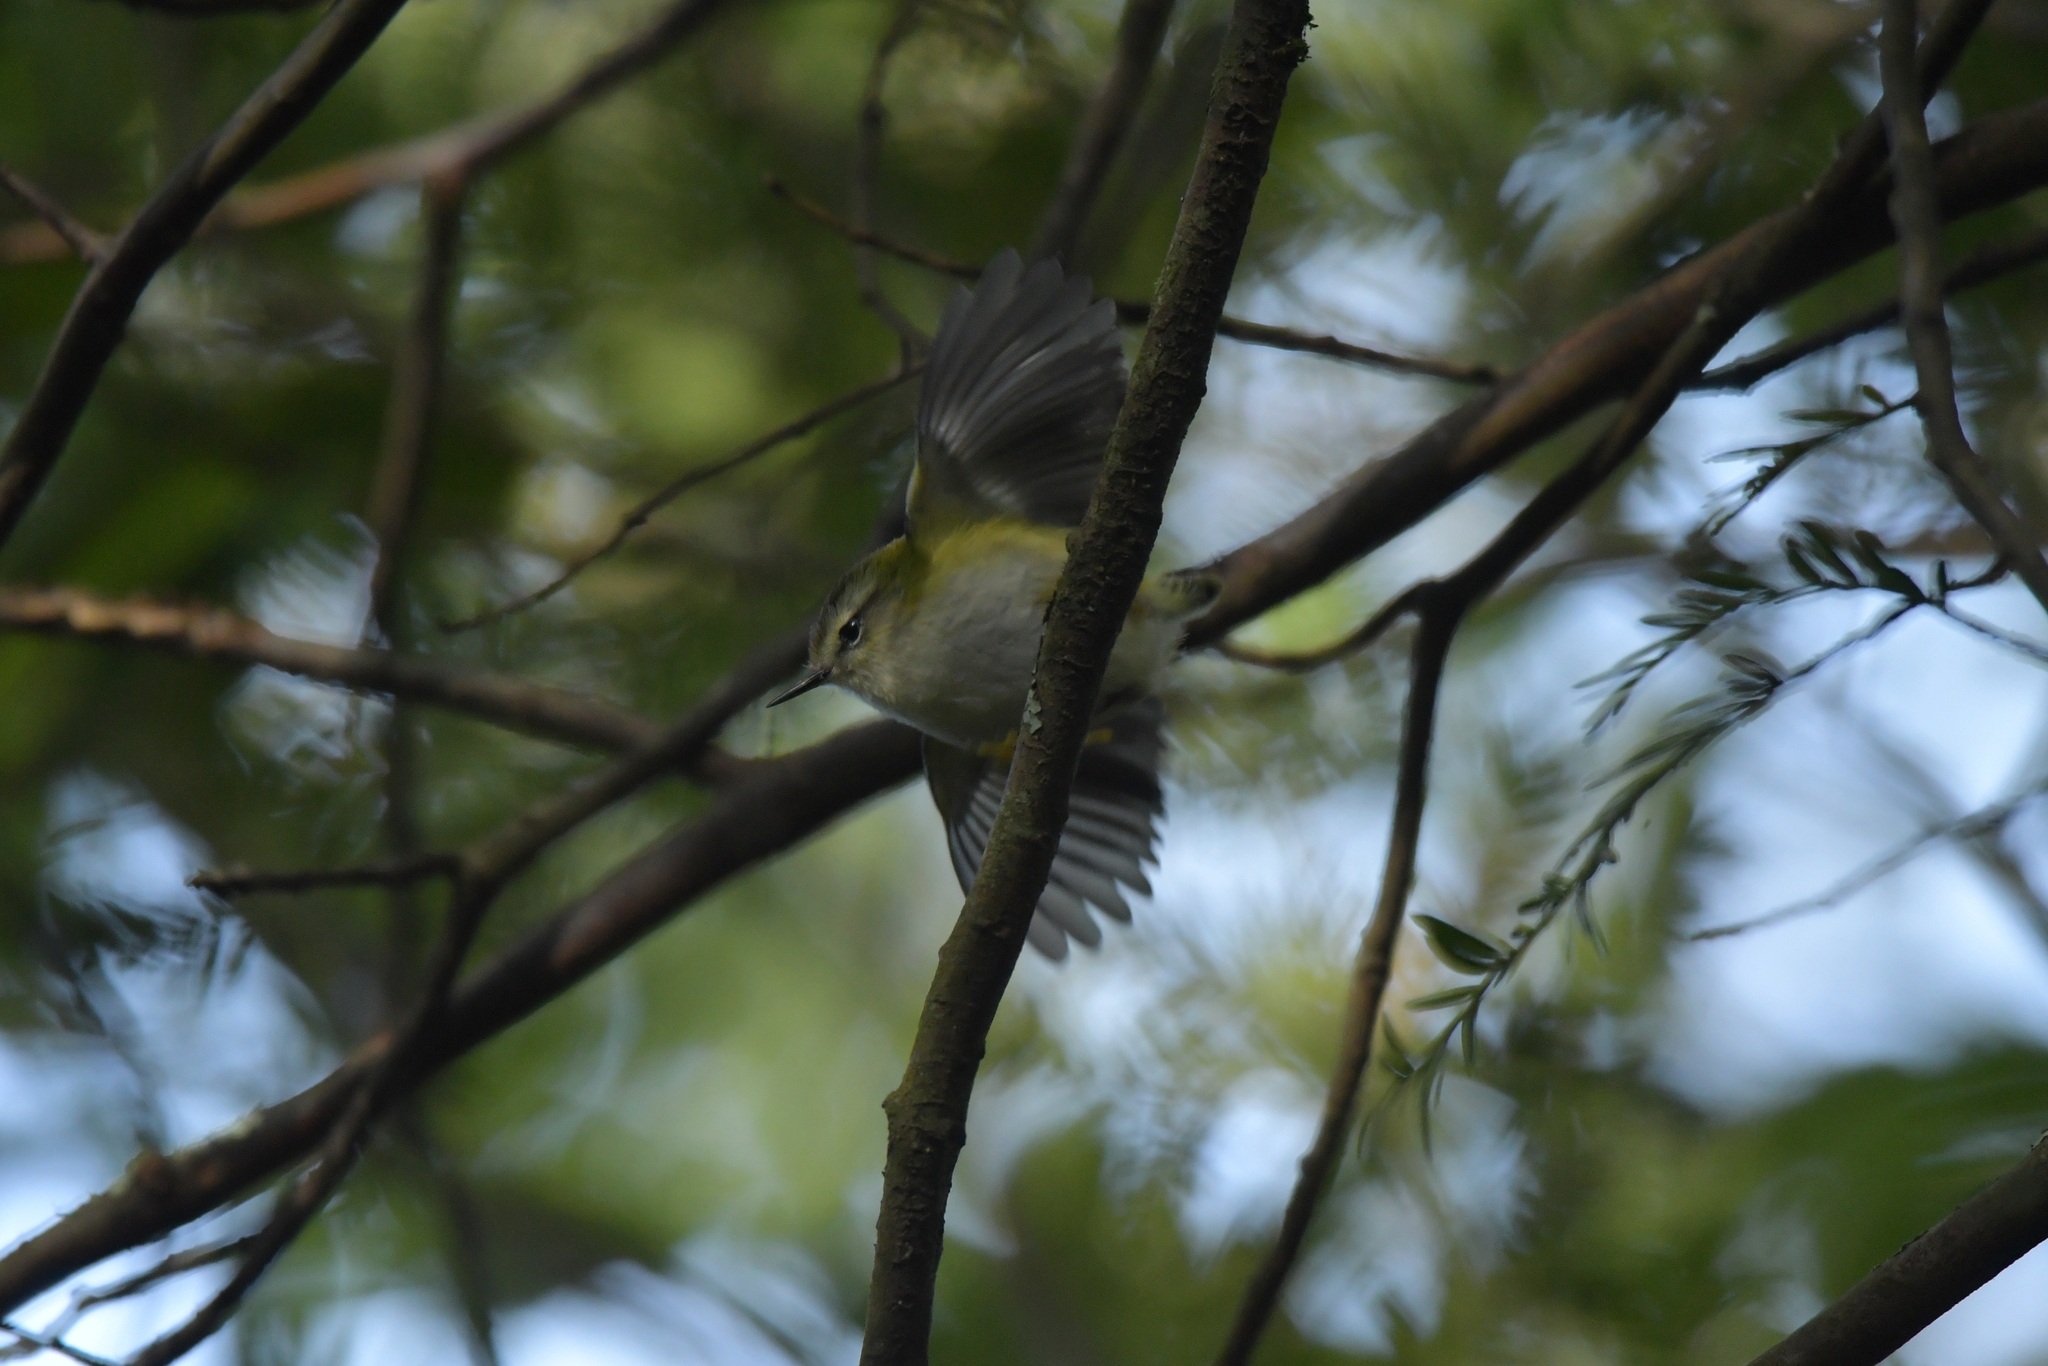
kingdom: Animalia
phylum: Chordata
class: Aves
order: Passeriformes
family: Acanthisittidae
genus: Acanthisitta
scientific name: Acanthisitta chloris
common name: Rifleman
